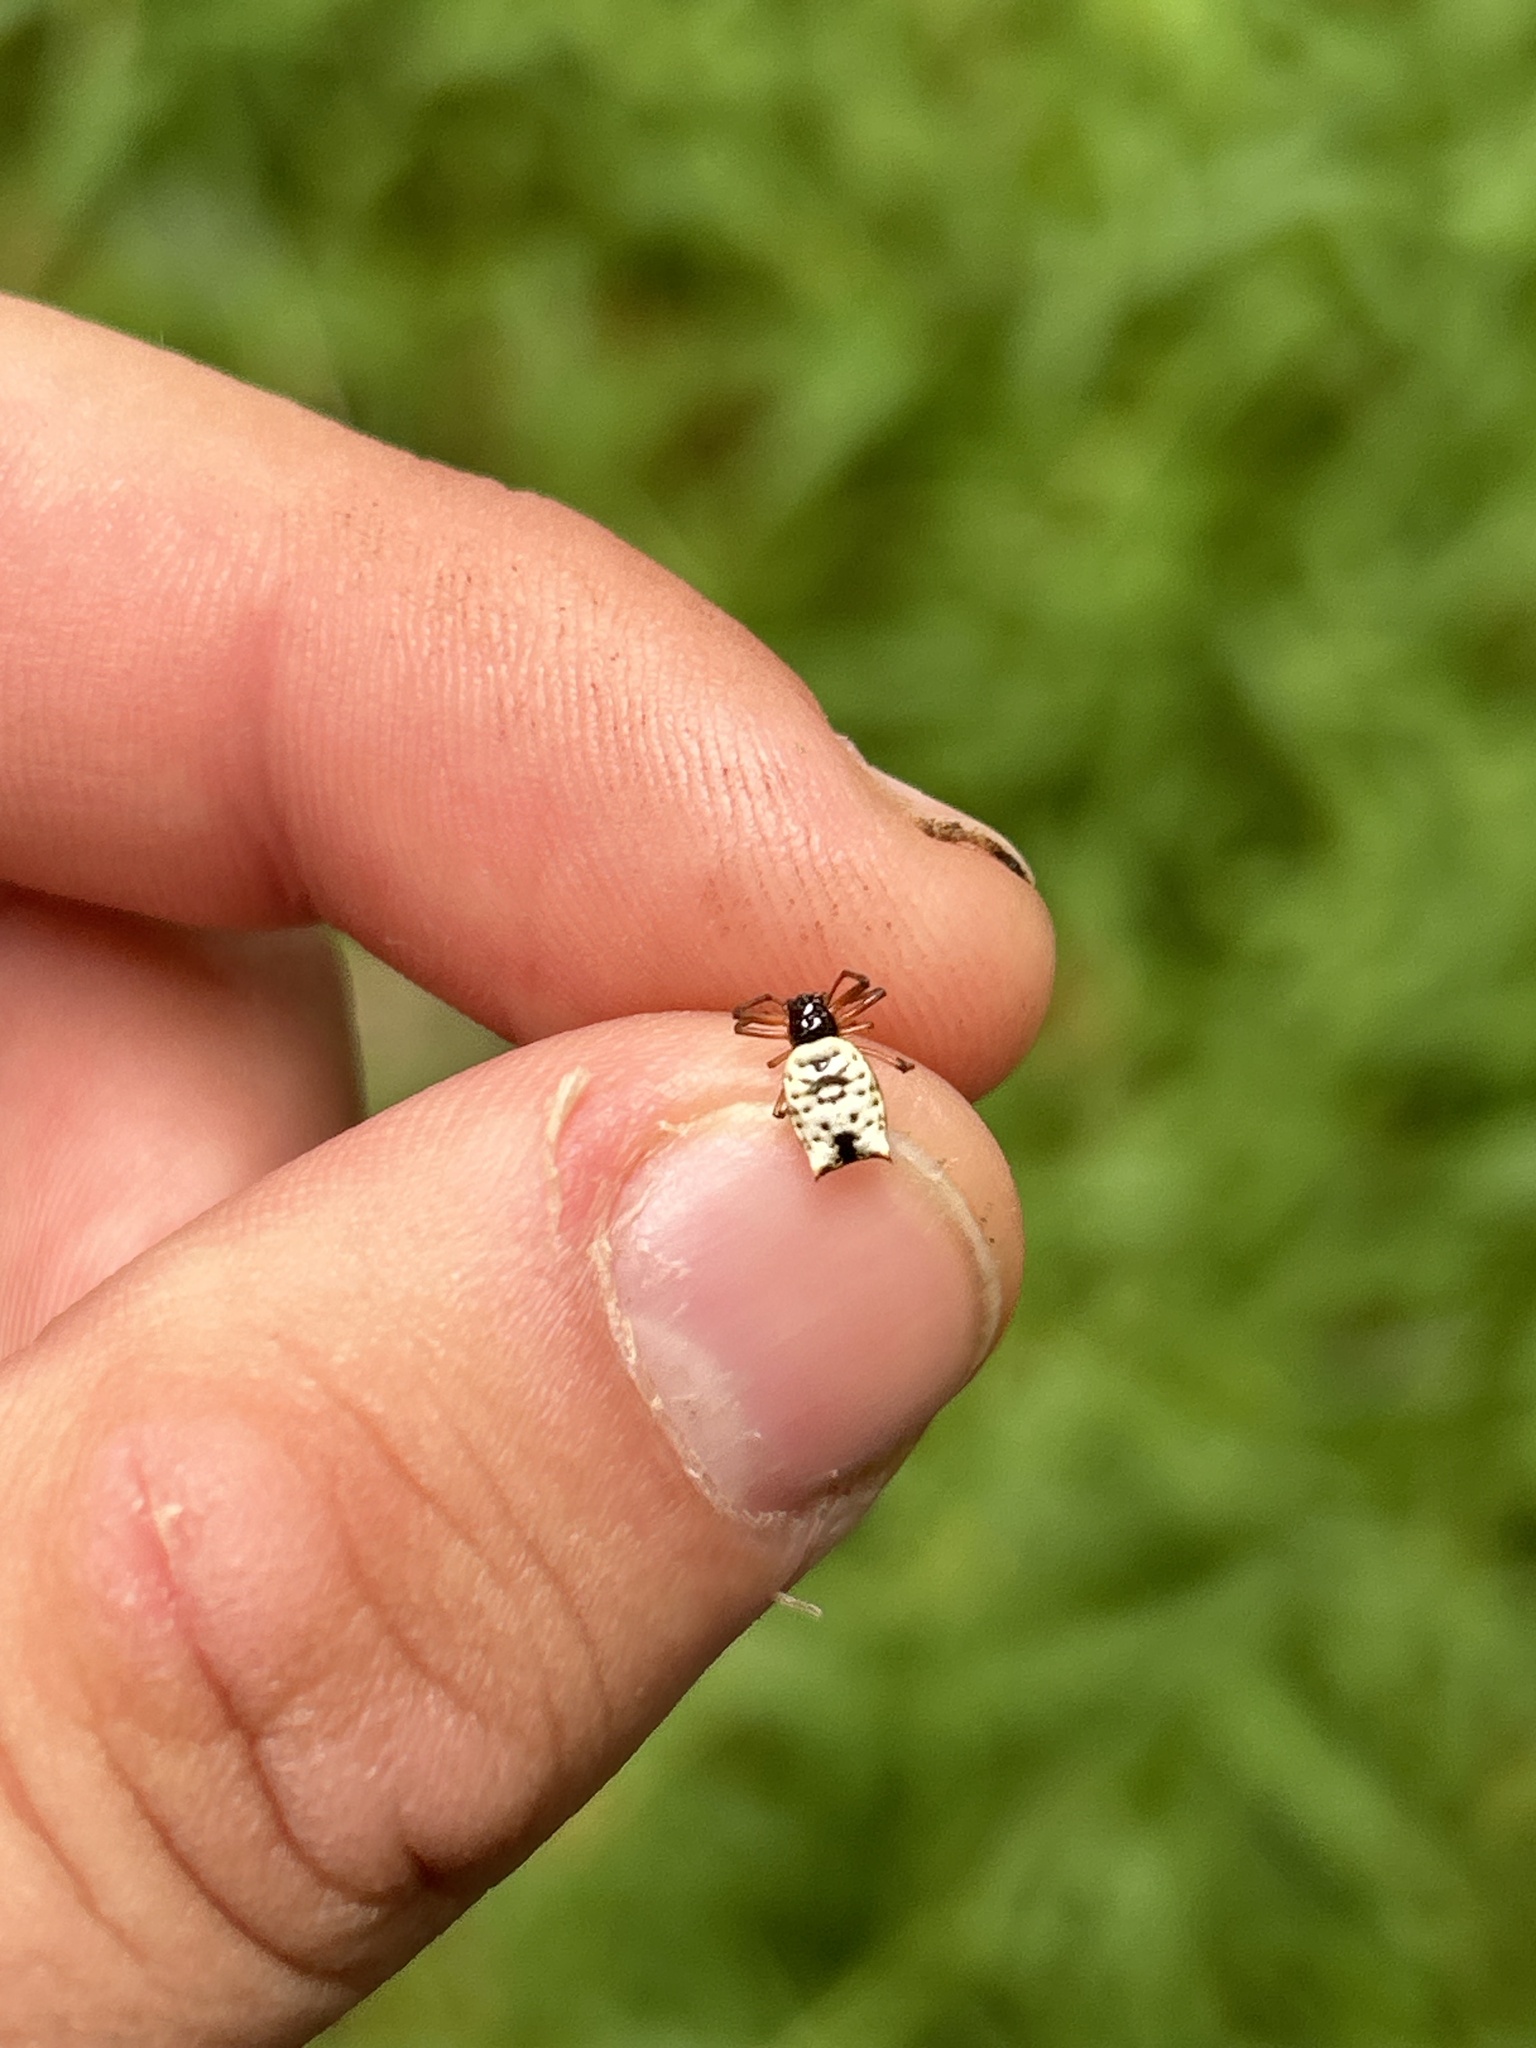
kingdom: Animalia
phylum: Arthropoda
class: Arachnida
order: Araneae
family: Araneidae
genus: Micrathena
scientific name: Micrathena mitrata
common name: Orb weavers
